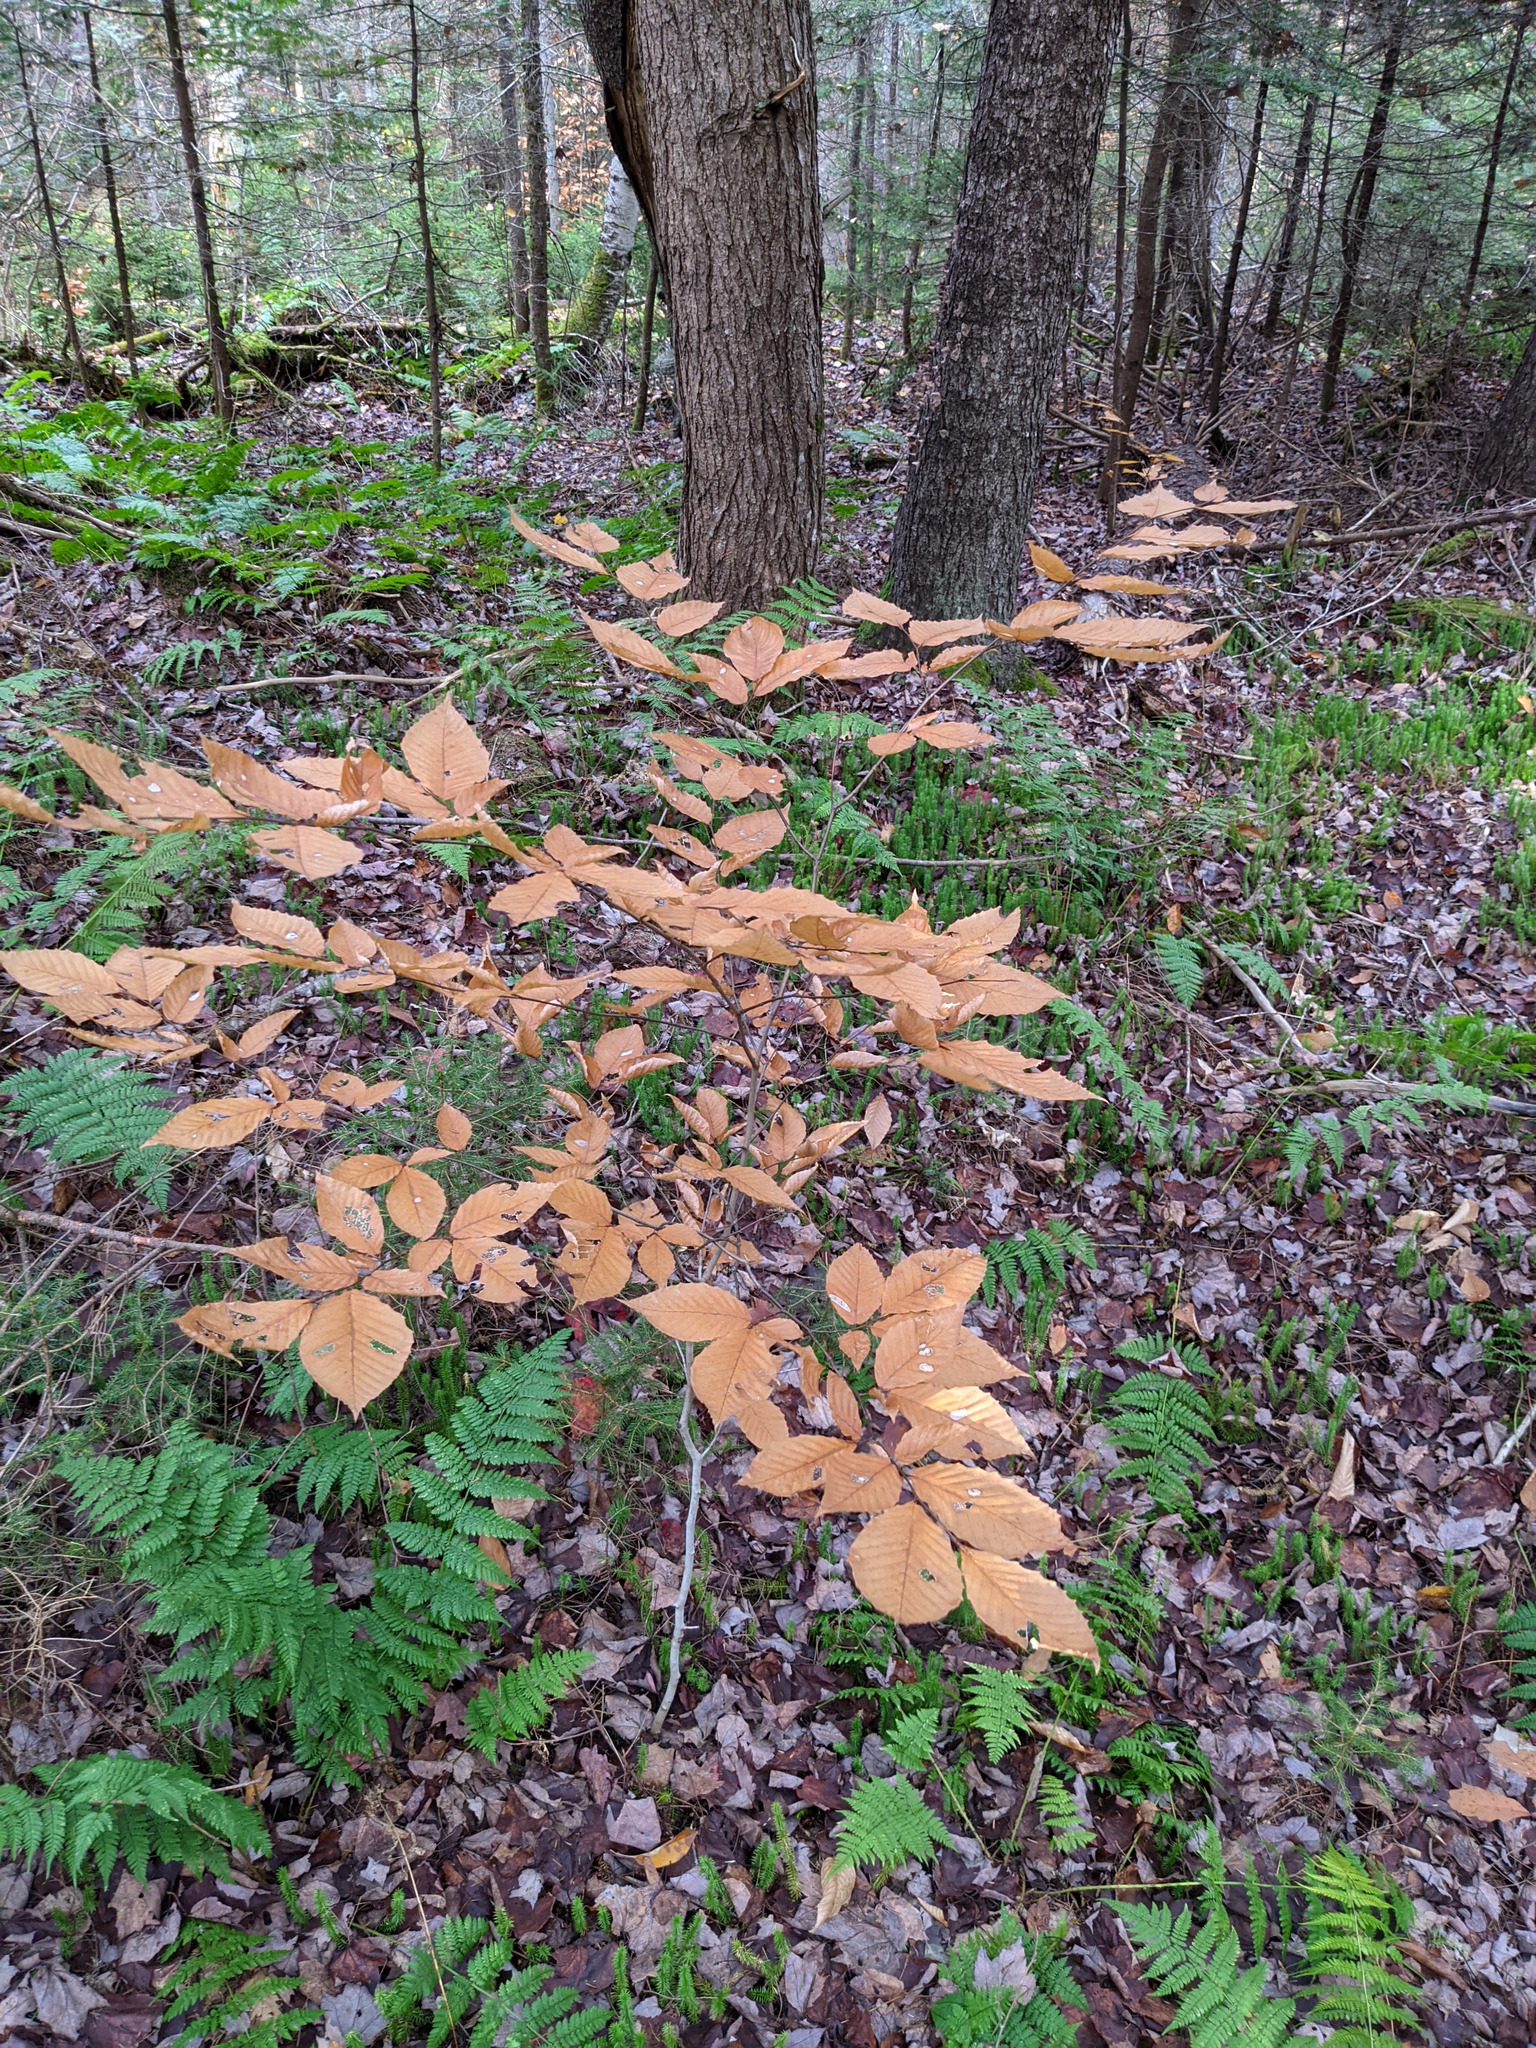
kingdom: Plantae
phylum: Tracheophyta
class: Magnoliopsida
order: Fagales
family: Fagaceae
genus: Fagus
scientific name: Fagus grandifolia
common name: American beech
